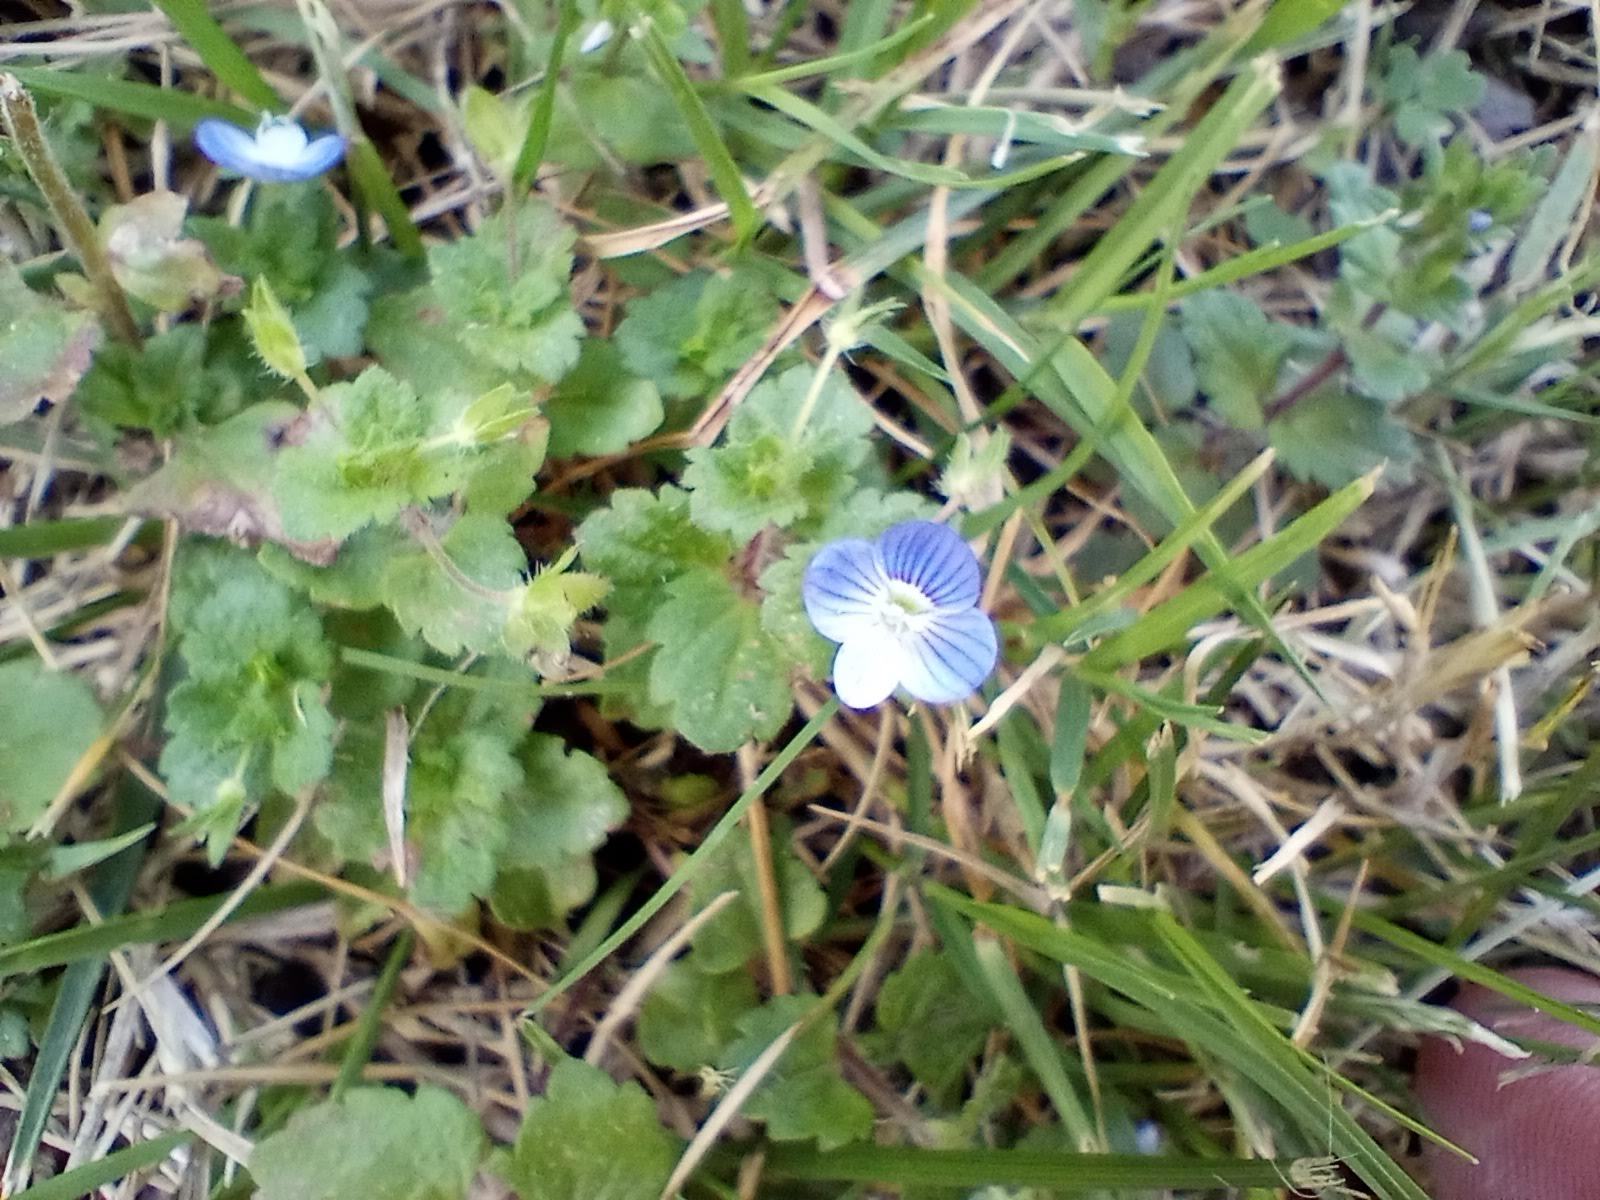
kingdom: Plantae
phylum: Tracheophyta
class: Magnoliopsida
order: Lamiales
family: Plantaginaceae
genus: Veronica
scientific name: Veronica persica
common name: Common field-speedwell
